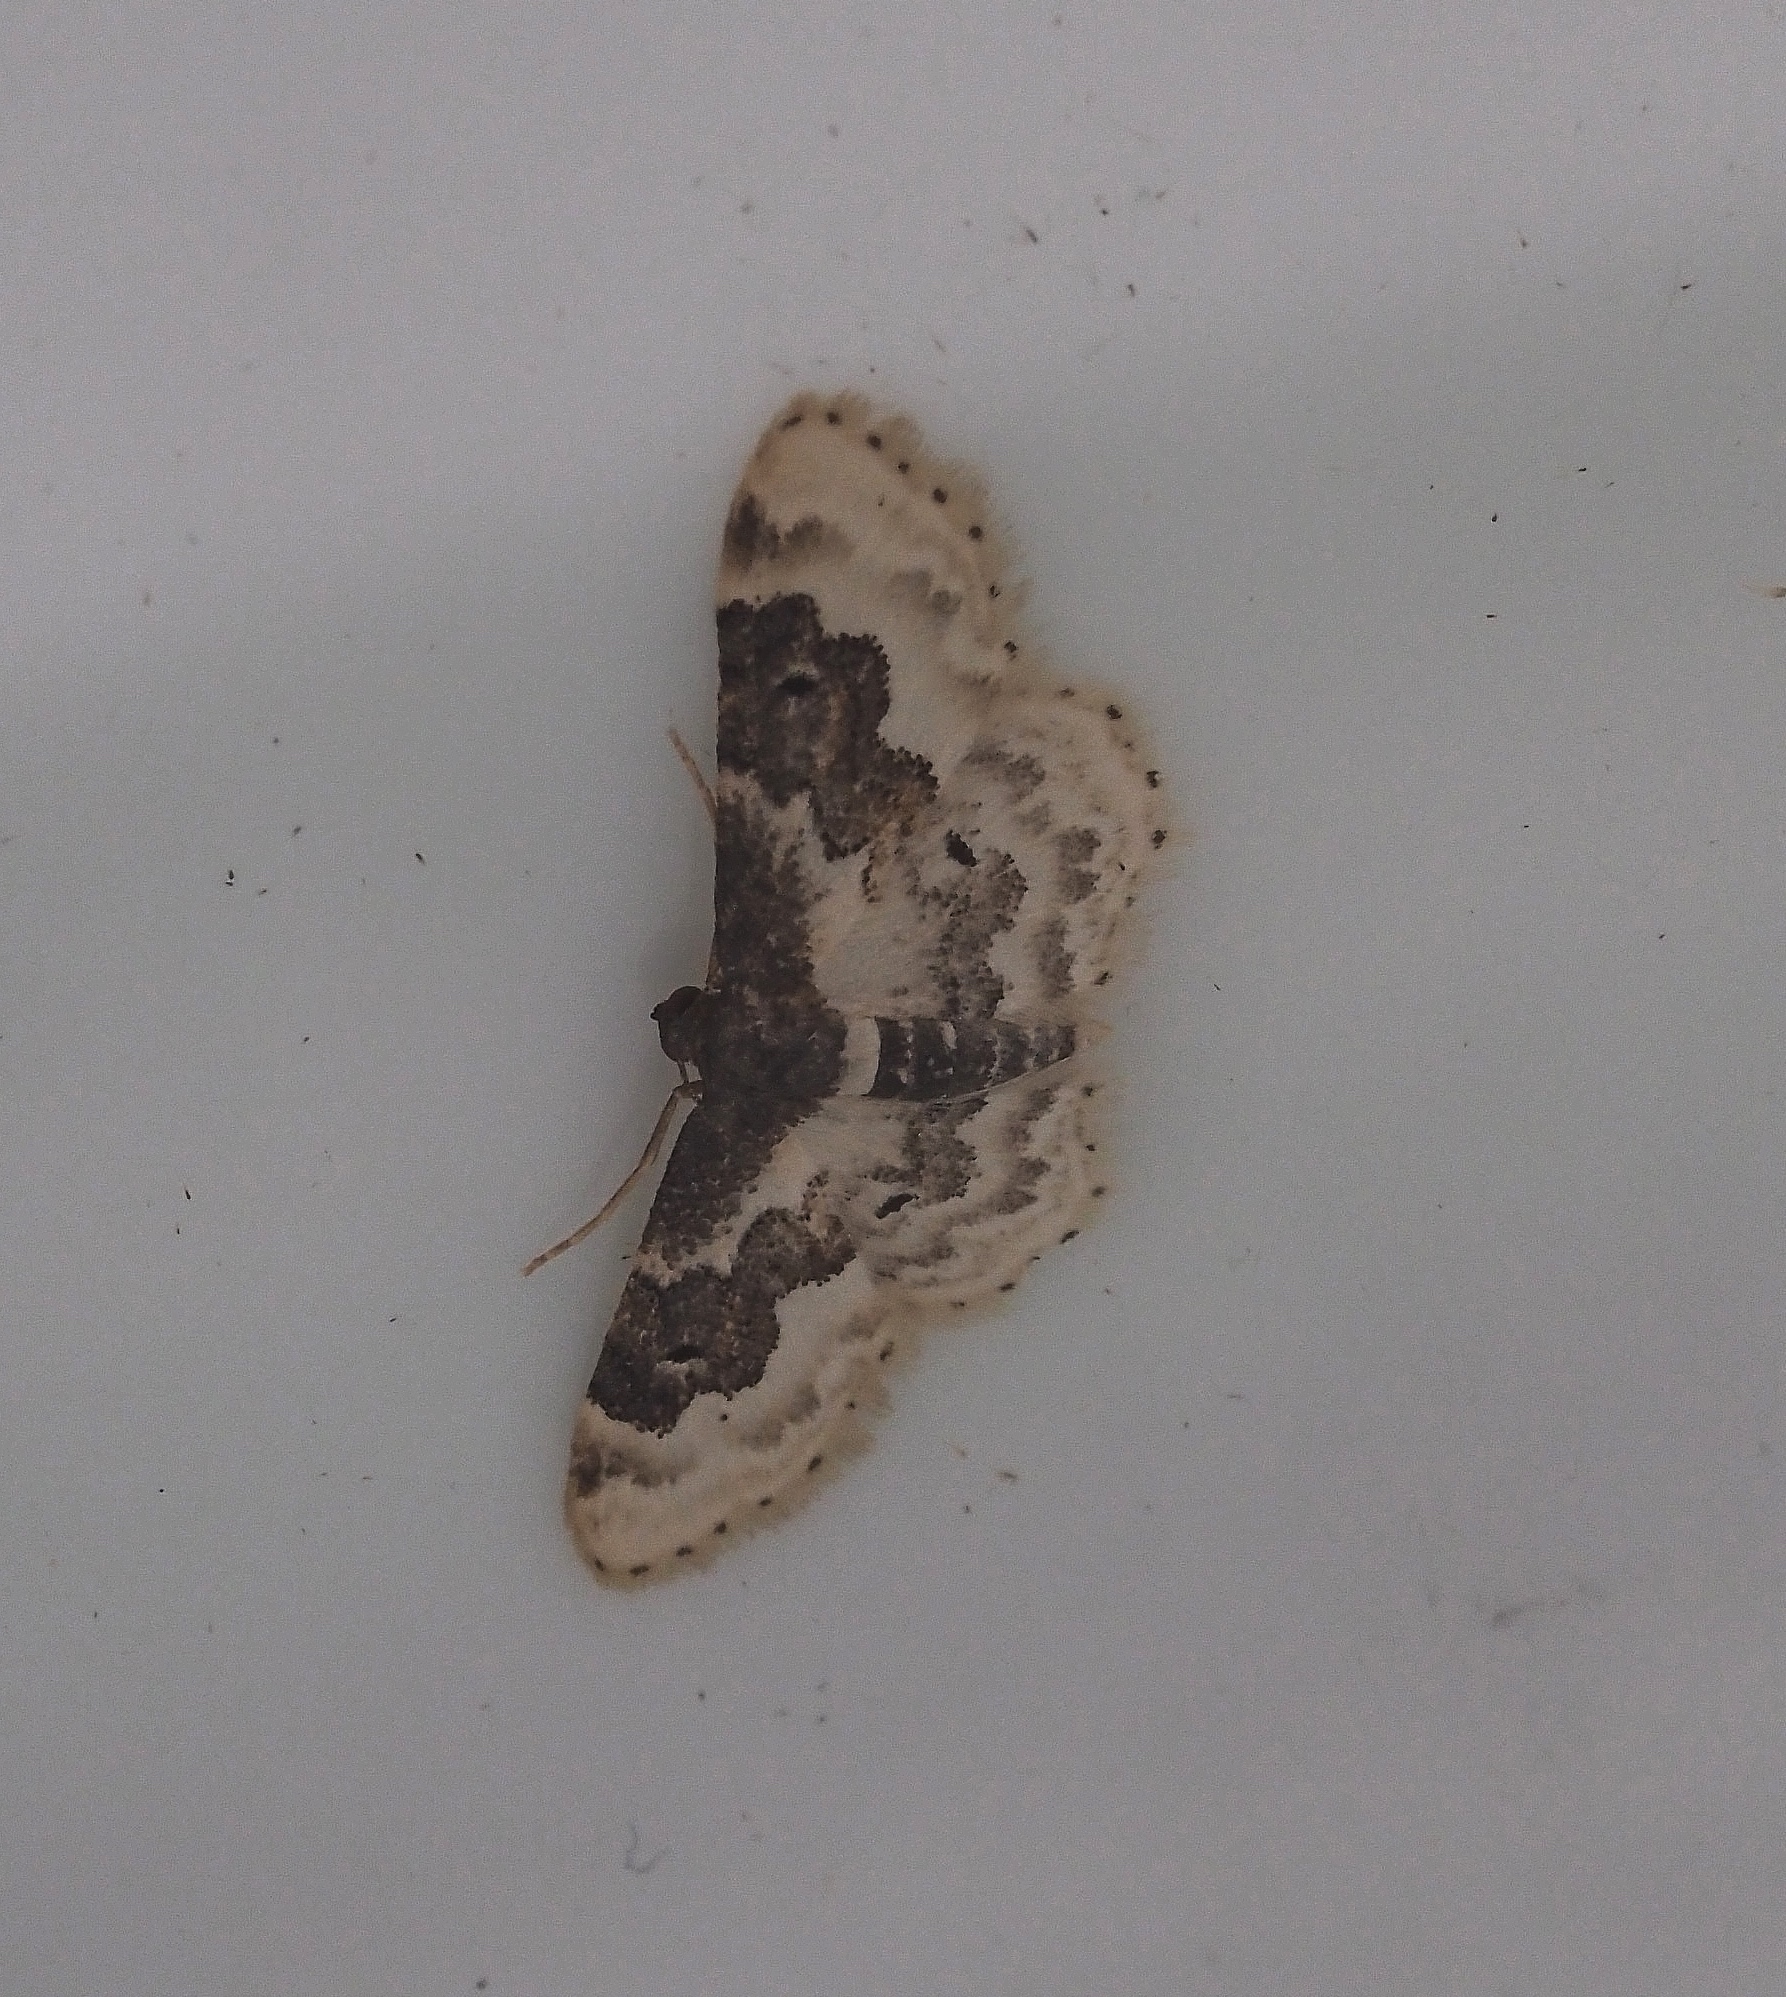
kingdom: Animalia
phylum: Arthropoda
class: Insecta
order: Lepidoptera
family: Geometridae
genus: Idaea
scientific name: Idaea rusticata
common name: Least carpet
